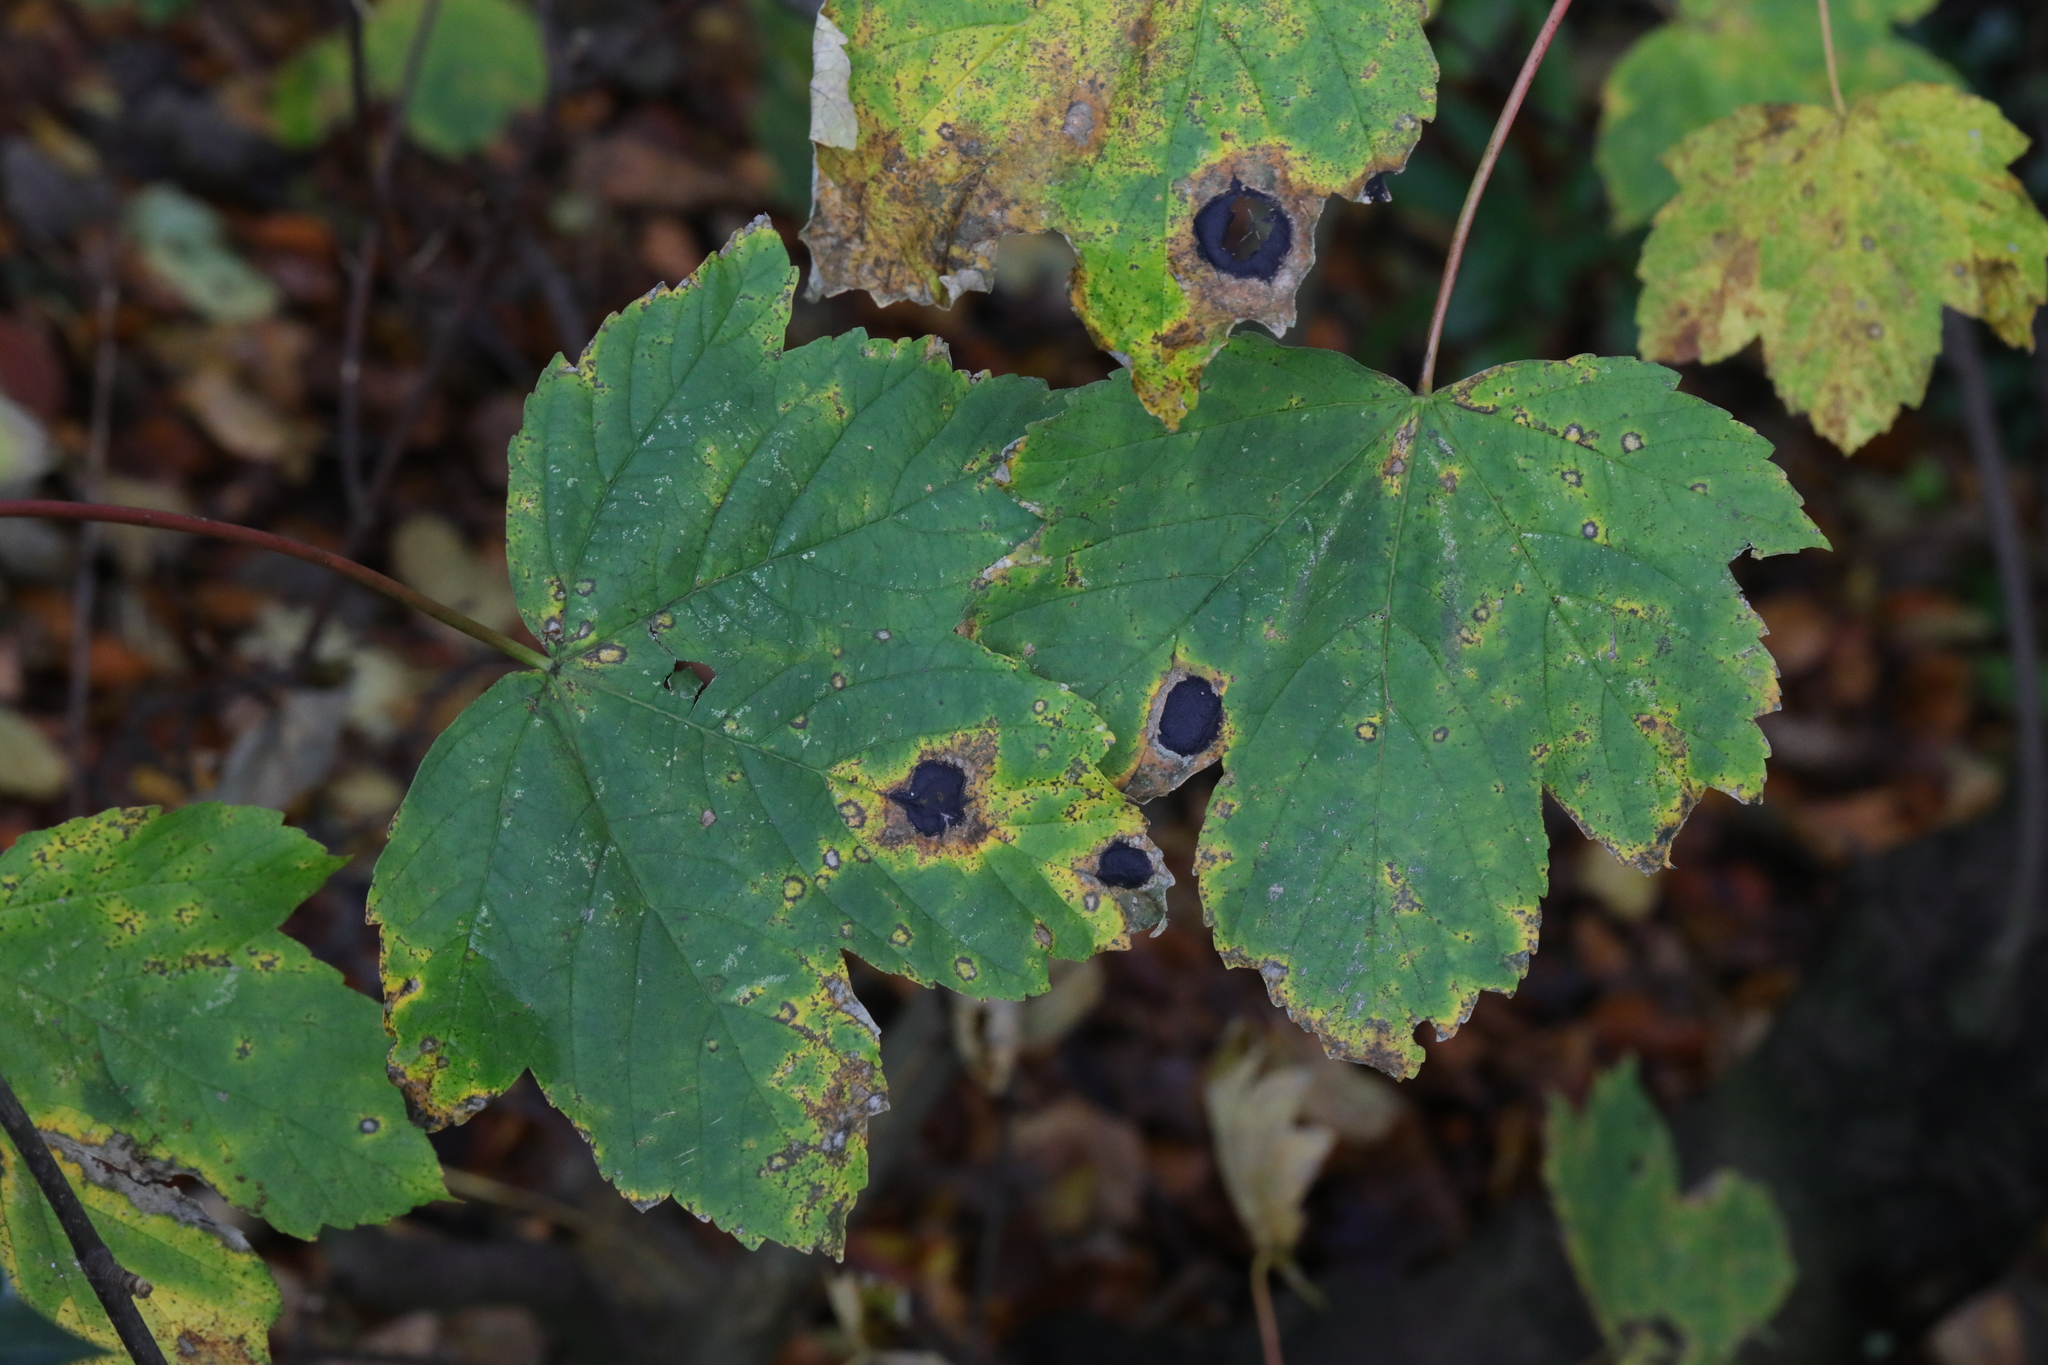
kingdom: Fungi
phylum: Ascomycota
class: Leotiomycetes
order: Rhytismatales
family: Rhytismataceae
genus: Rhytisma
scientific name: Rhytisma acerinum
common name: European tar spot
